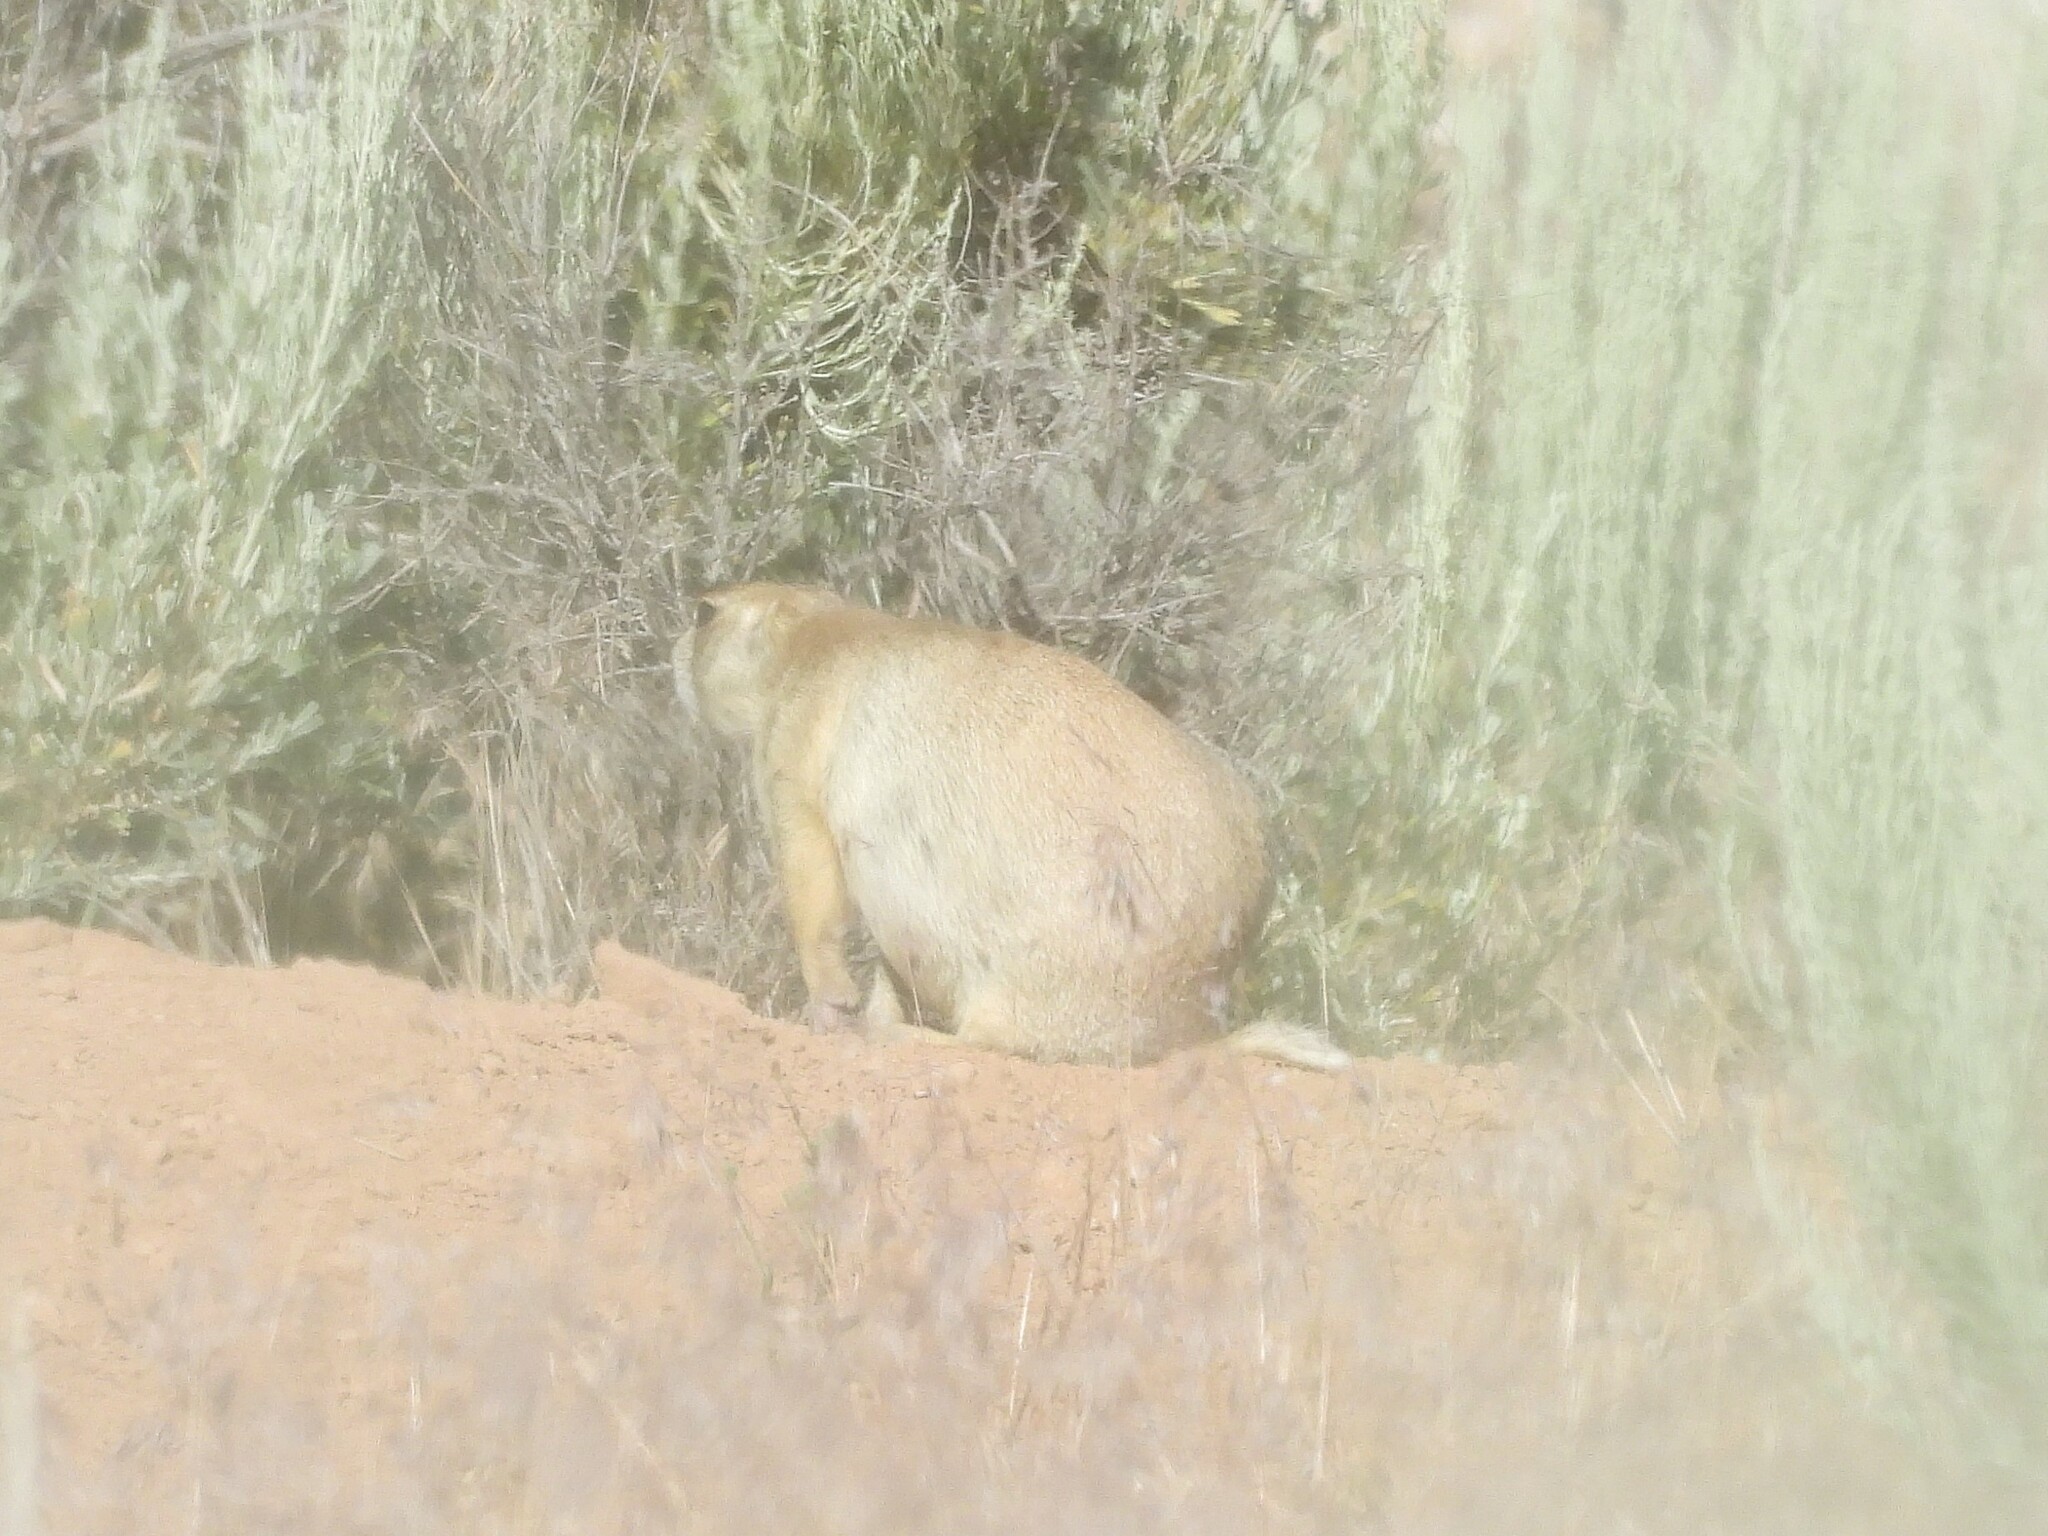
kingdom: Animalia
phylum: Chordata
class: Mammalia
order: Rodentia
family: Sciuridae
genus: Cynomys
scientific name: Cynomys leucurus
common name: White-tailed prairie dog
